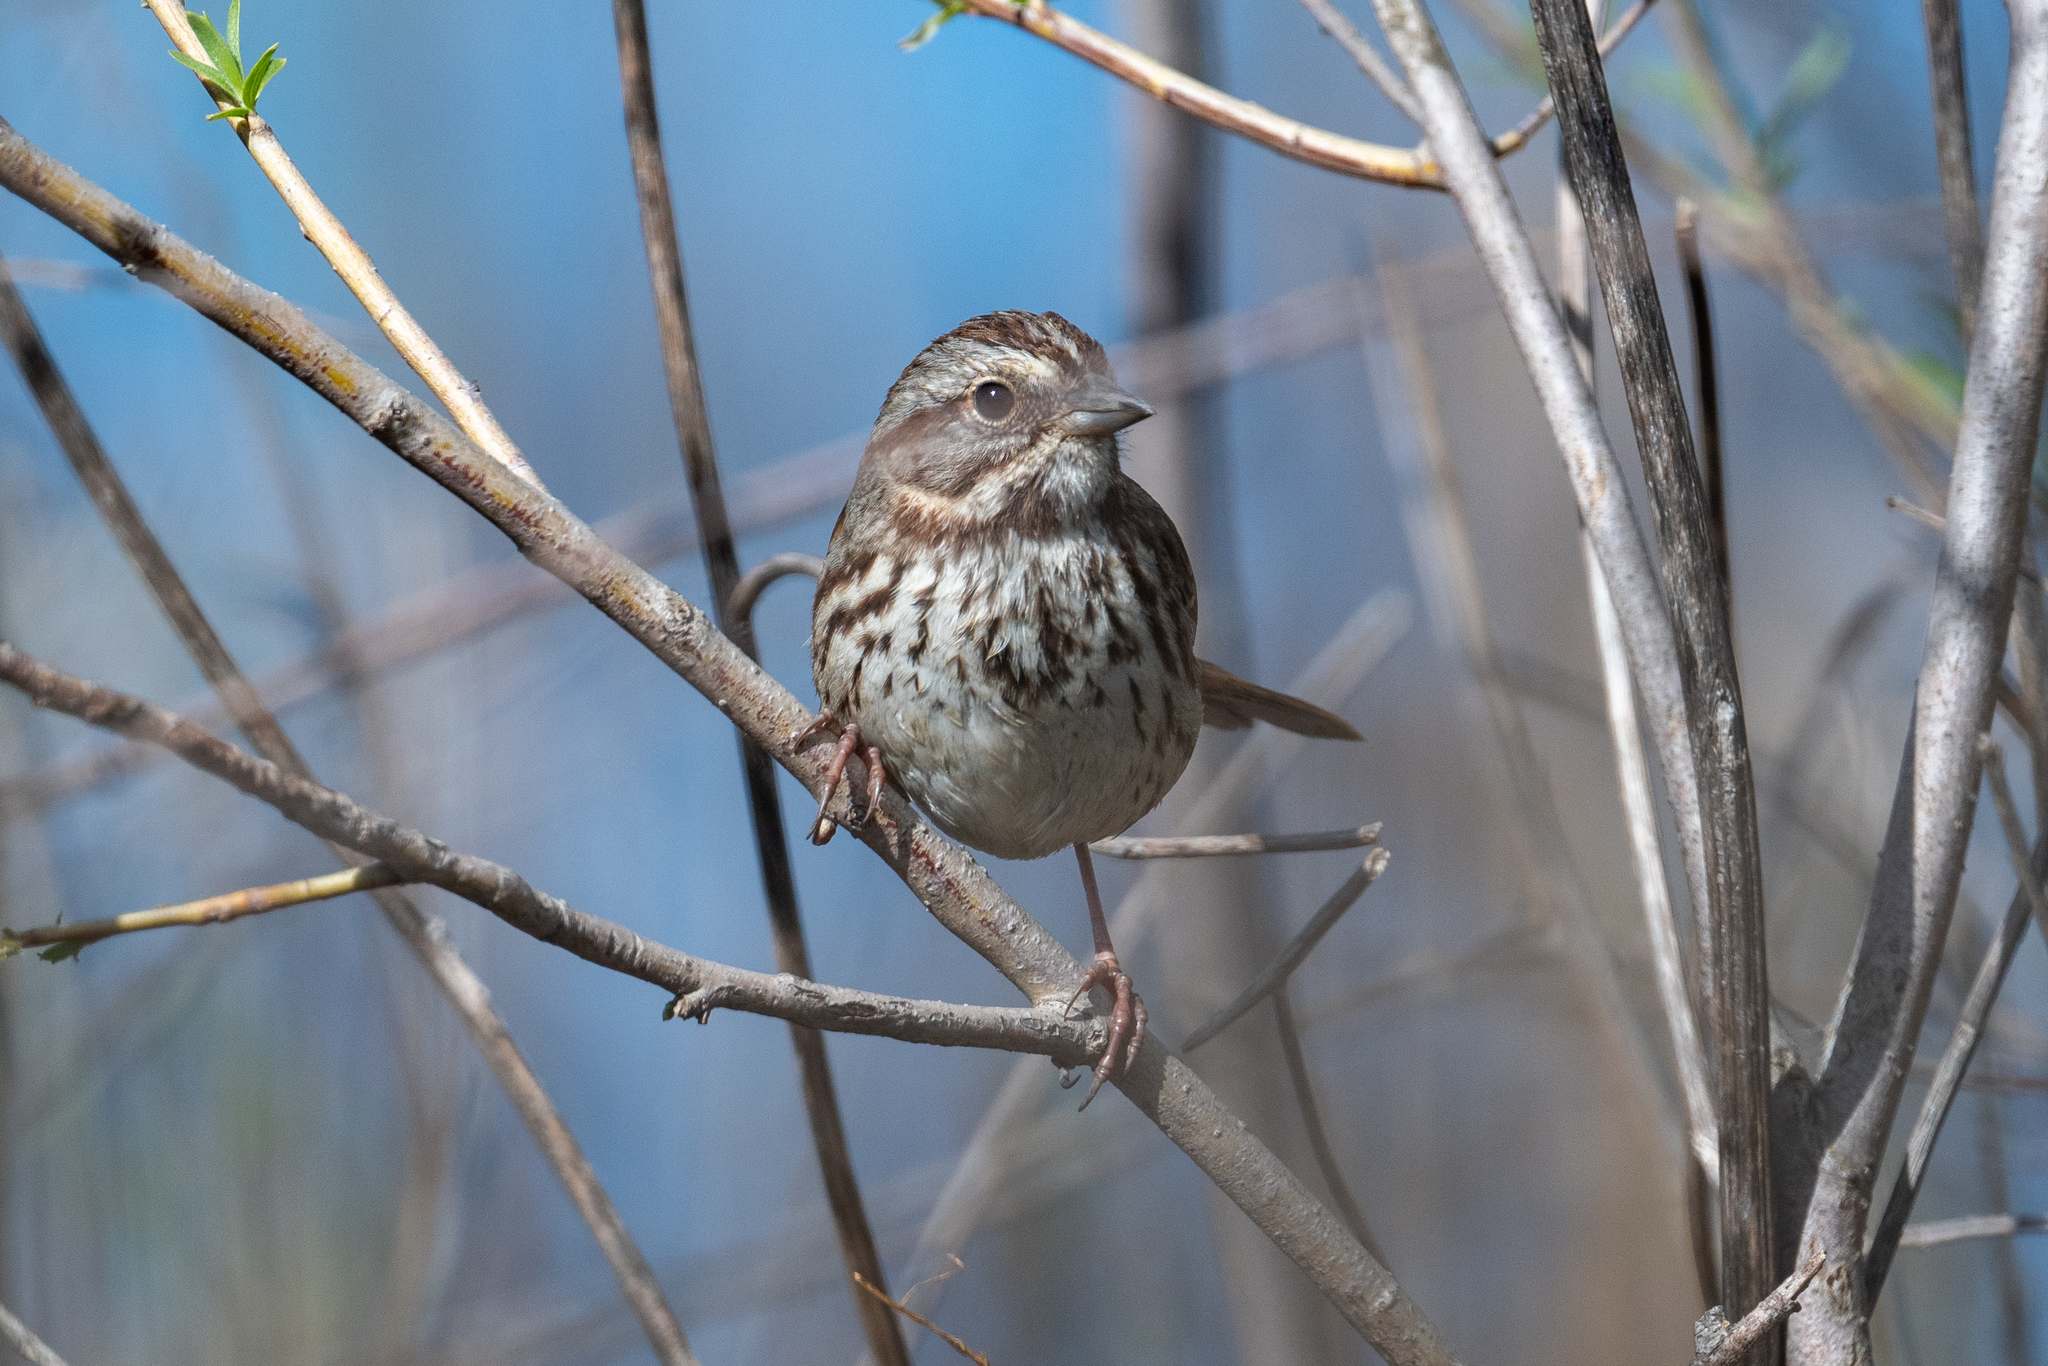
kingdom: Animalia
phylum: Chordata
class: Aves
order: Passeriformes
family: Passerellidae
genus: Melospiza
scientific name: Melospiza melodia
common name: Song sparrow
